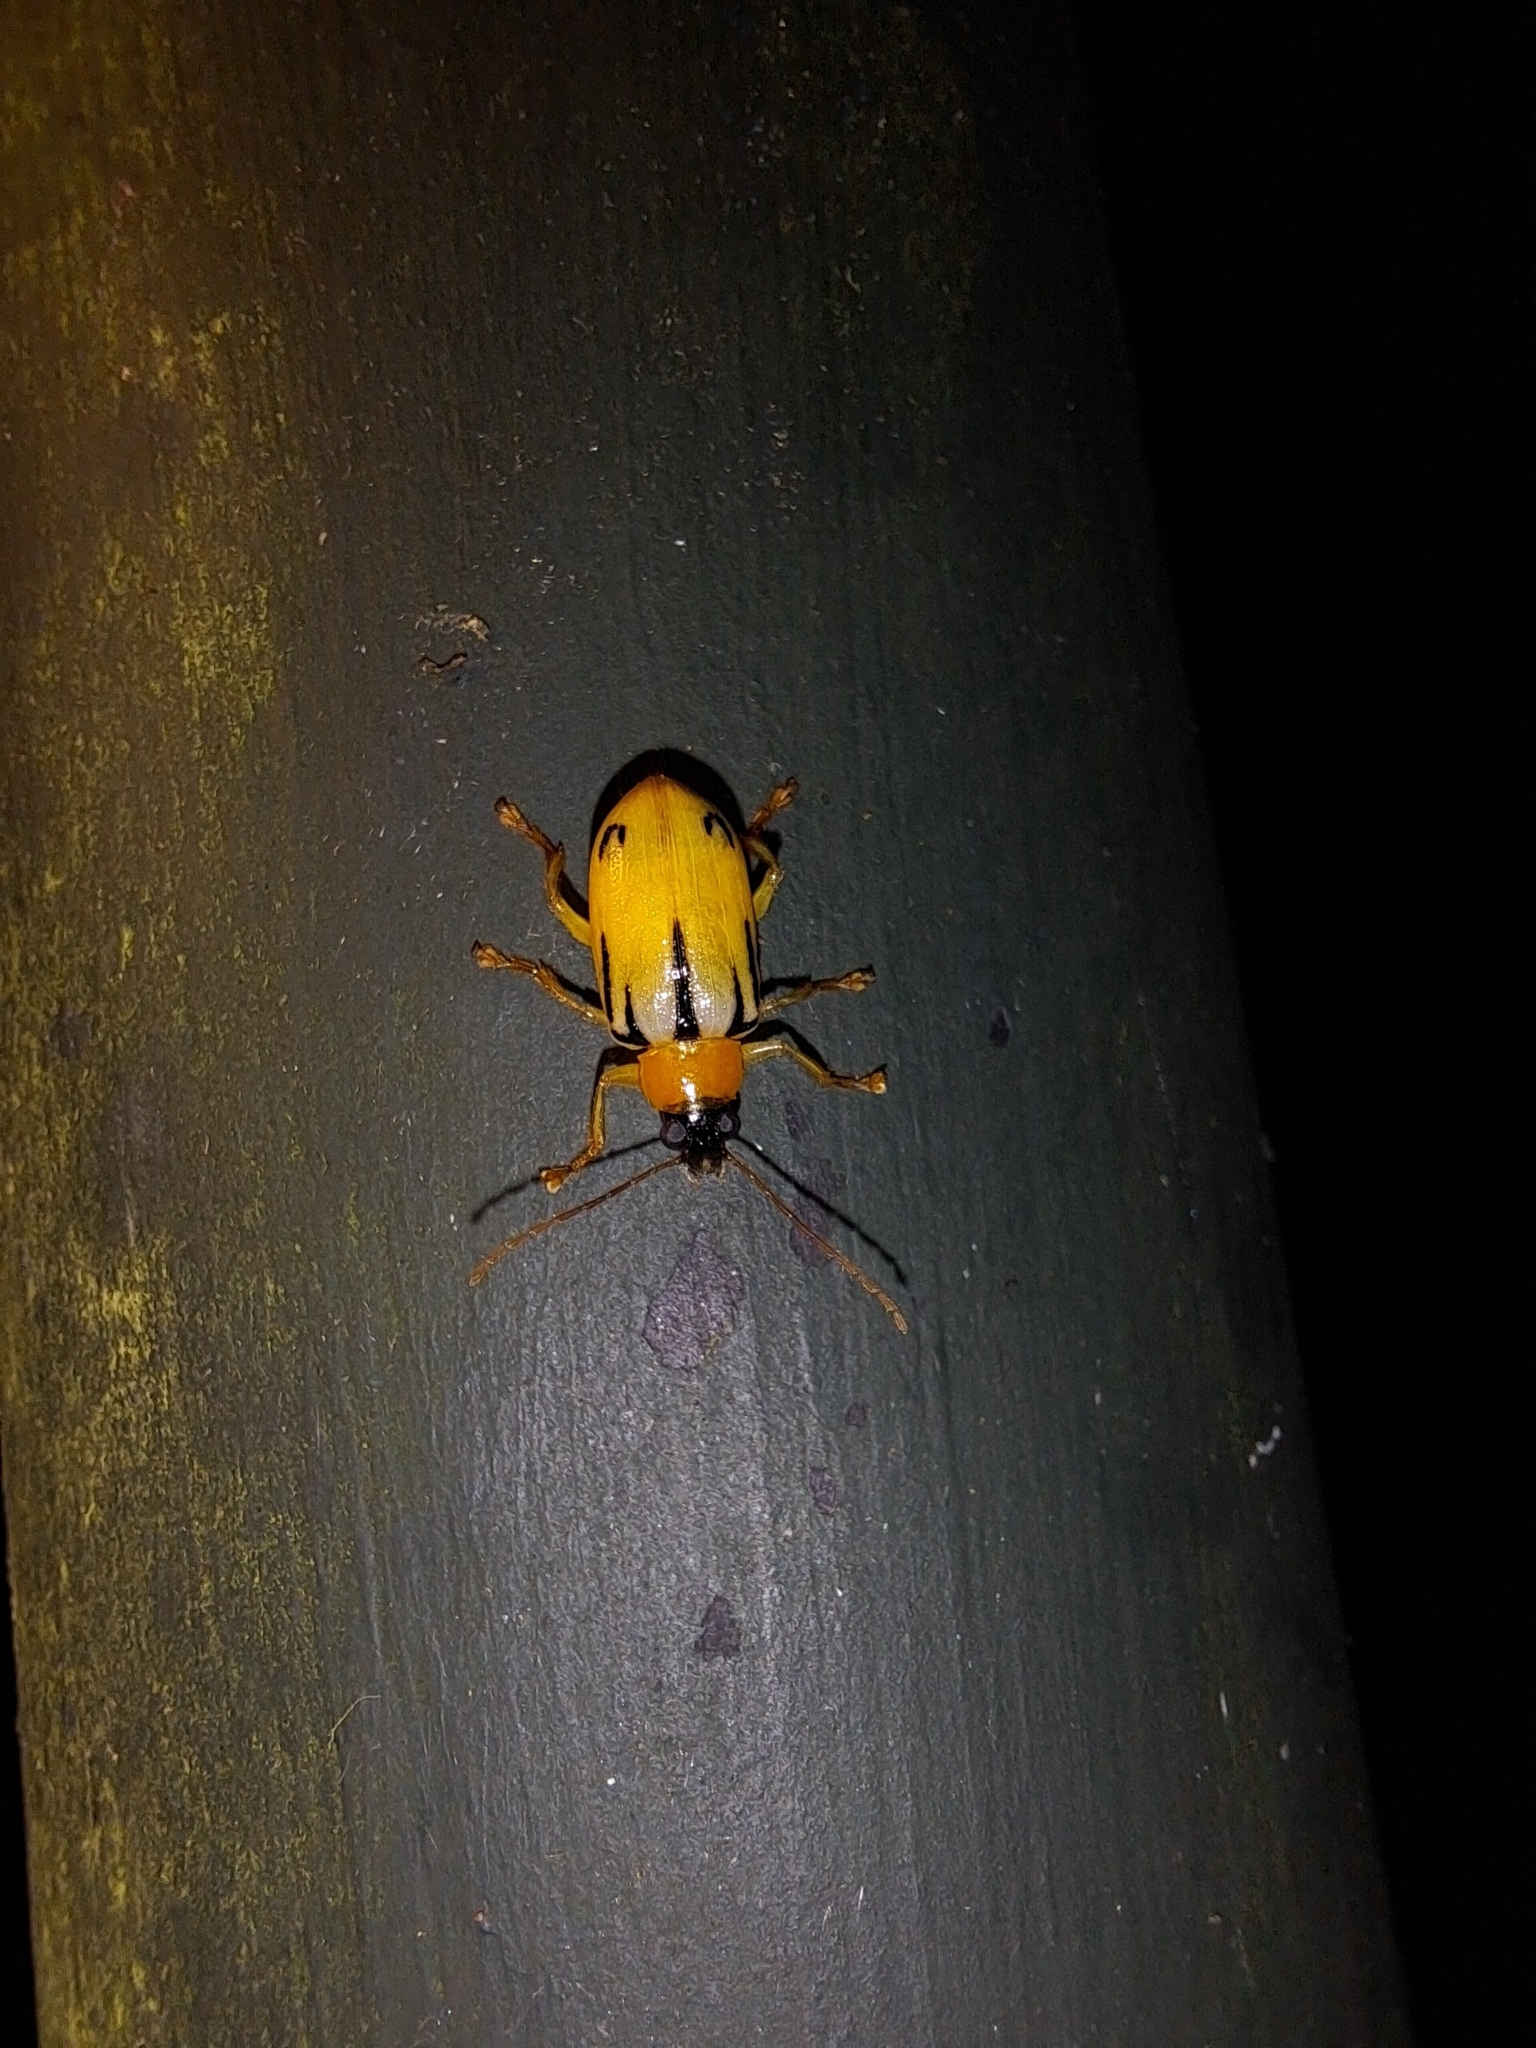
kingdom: Animalia
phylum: Arthropoda
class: Insecta
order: Coleoptera
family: Chrysomelidae
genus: Metaxyonycha
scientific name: Metaxyonycha
